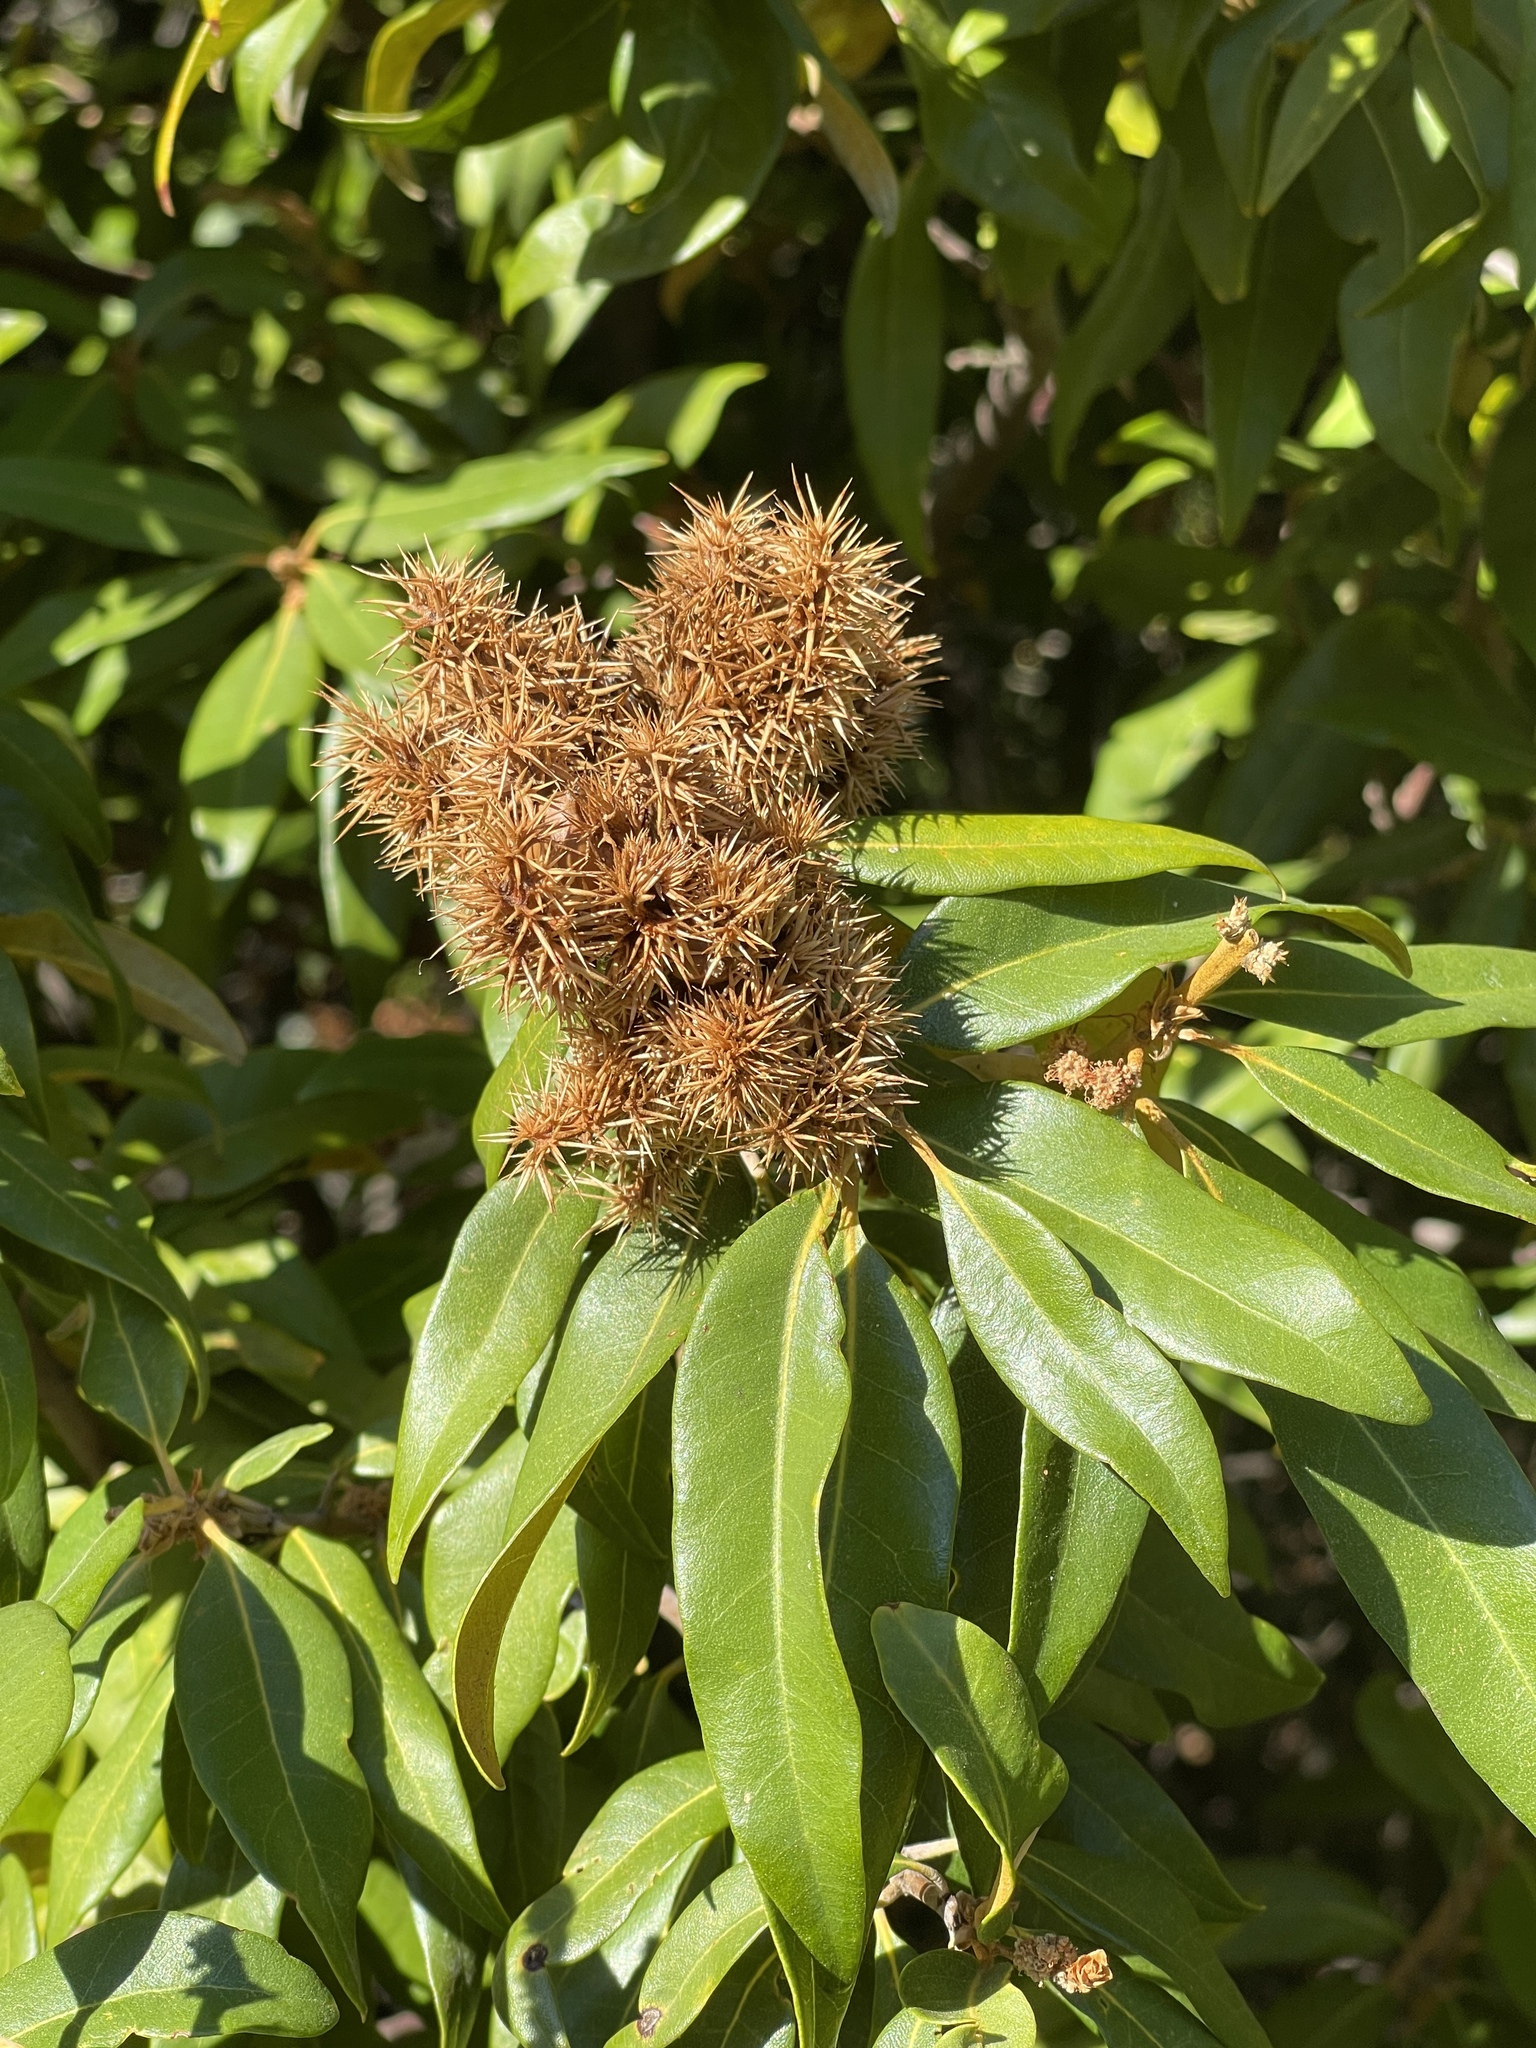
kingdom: Plantae
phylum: Tracheophyta
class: Magnoliopsida
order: Fagales
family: Fagaceae
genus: Chrysolepis
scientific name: Chrysolepis chrysophylla
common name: Giant chinquapin
